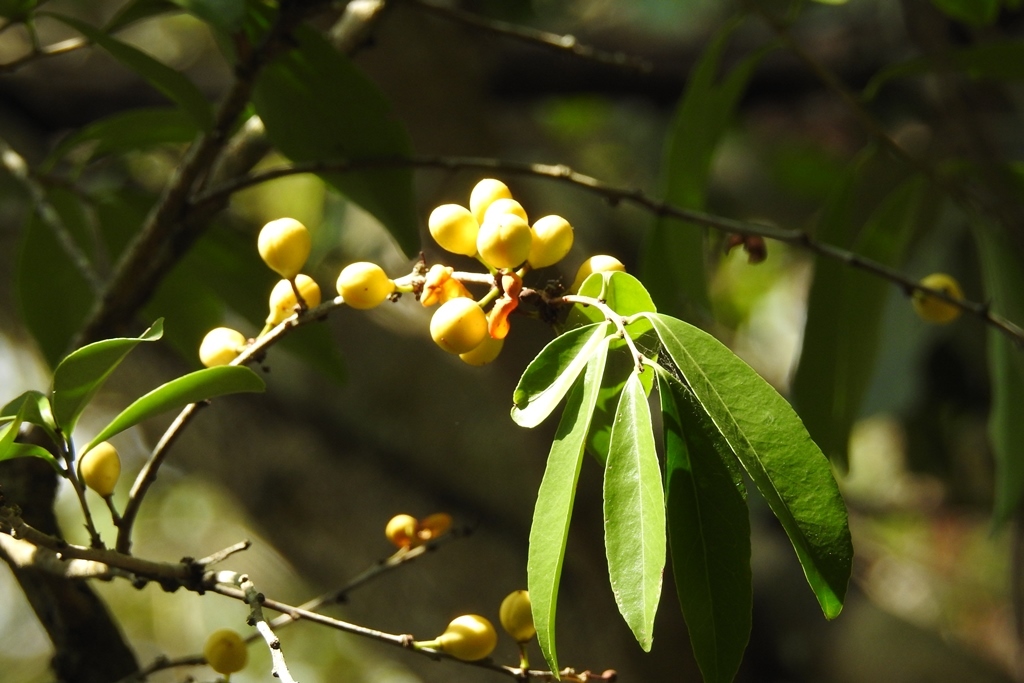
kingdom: Plantae
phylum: Tracheophyta
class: Magnoliopsida
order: Celastrales
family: Celastraceae
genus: Monteverdia
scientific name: Monteverdia stipitata
